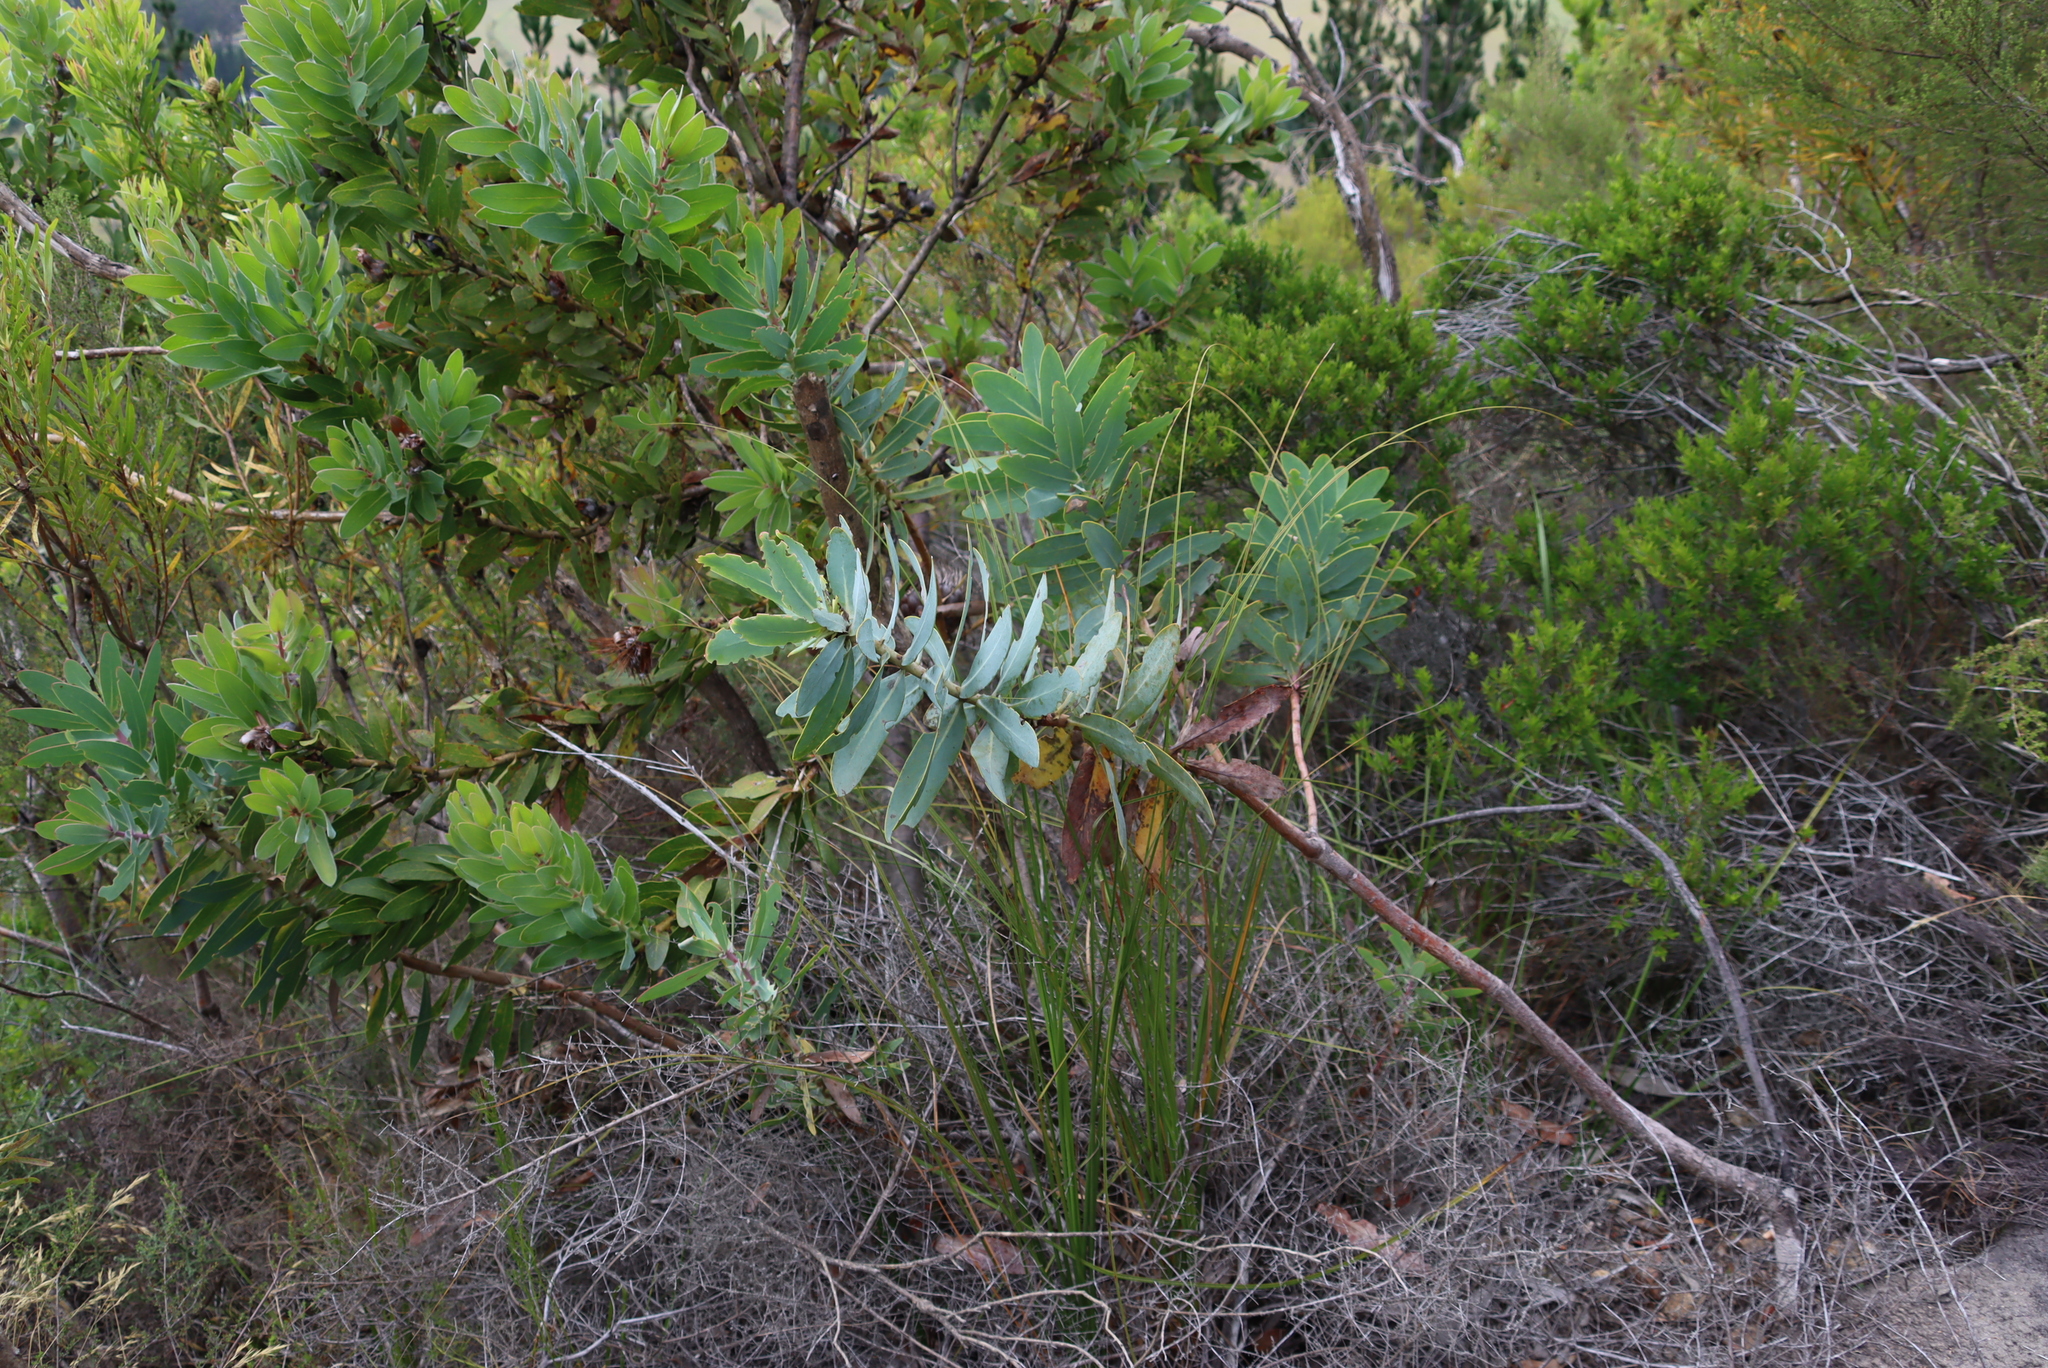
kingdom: Plantae
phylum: Tracheophyta
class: Magnoliopsida
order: Proteales
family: Proteaceae
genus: Protea
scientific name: Protea nitida
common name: Tree protea
